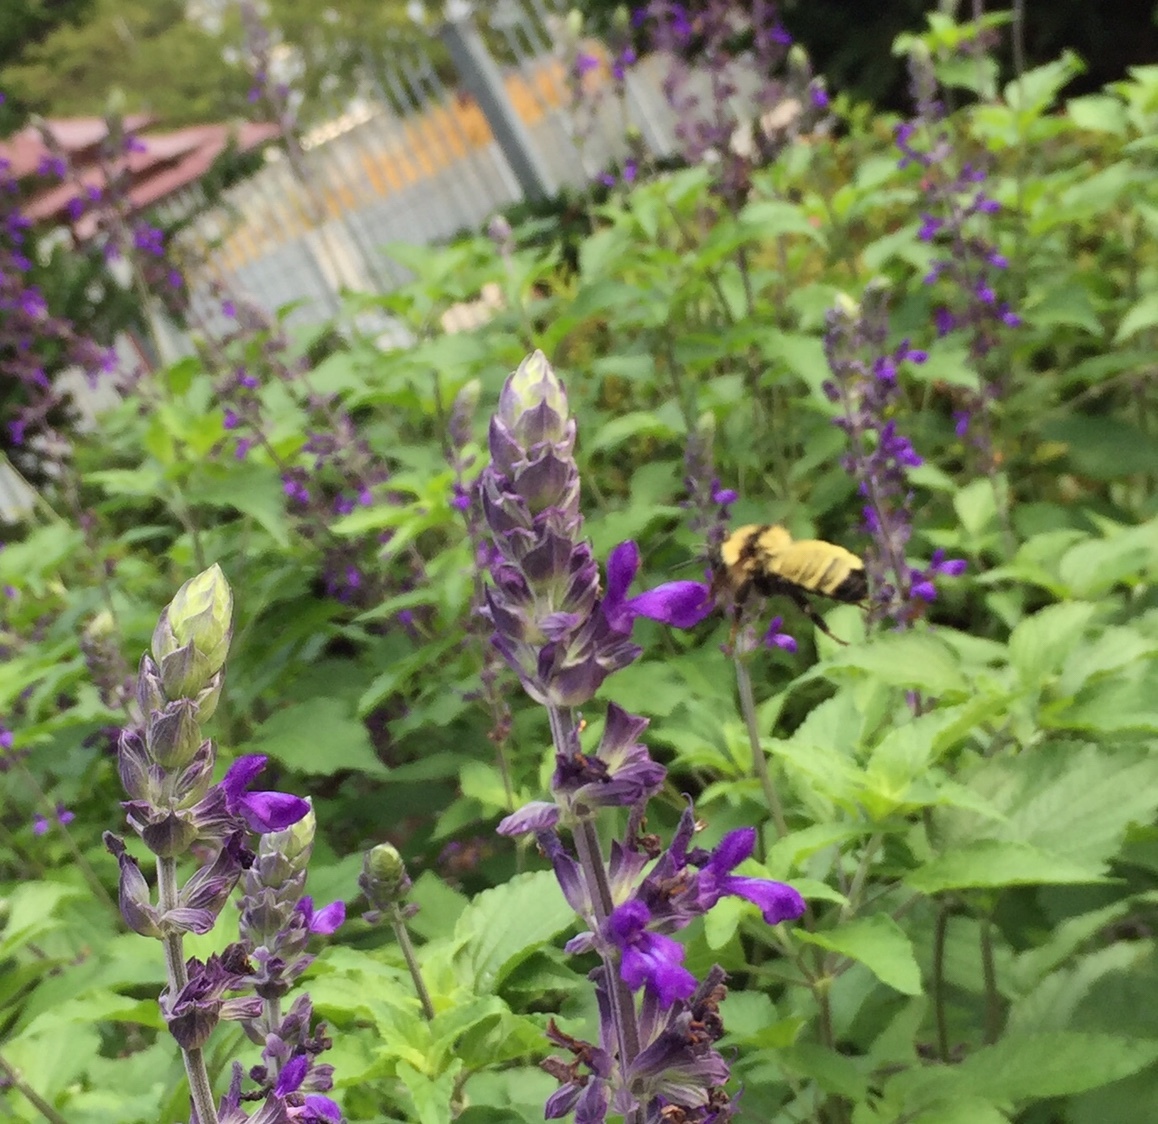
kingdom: Animalia
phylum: Arthropoda
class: Insecta
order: Hymenoptera
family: Apidae
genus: Bombus
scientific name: Bombus fervidus
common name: Yellow bumble bee
